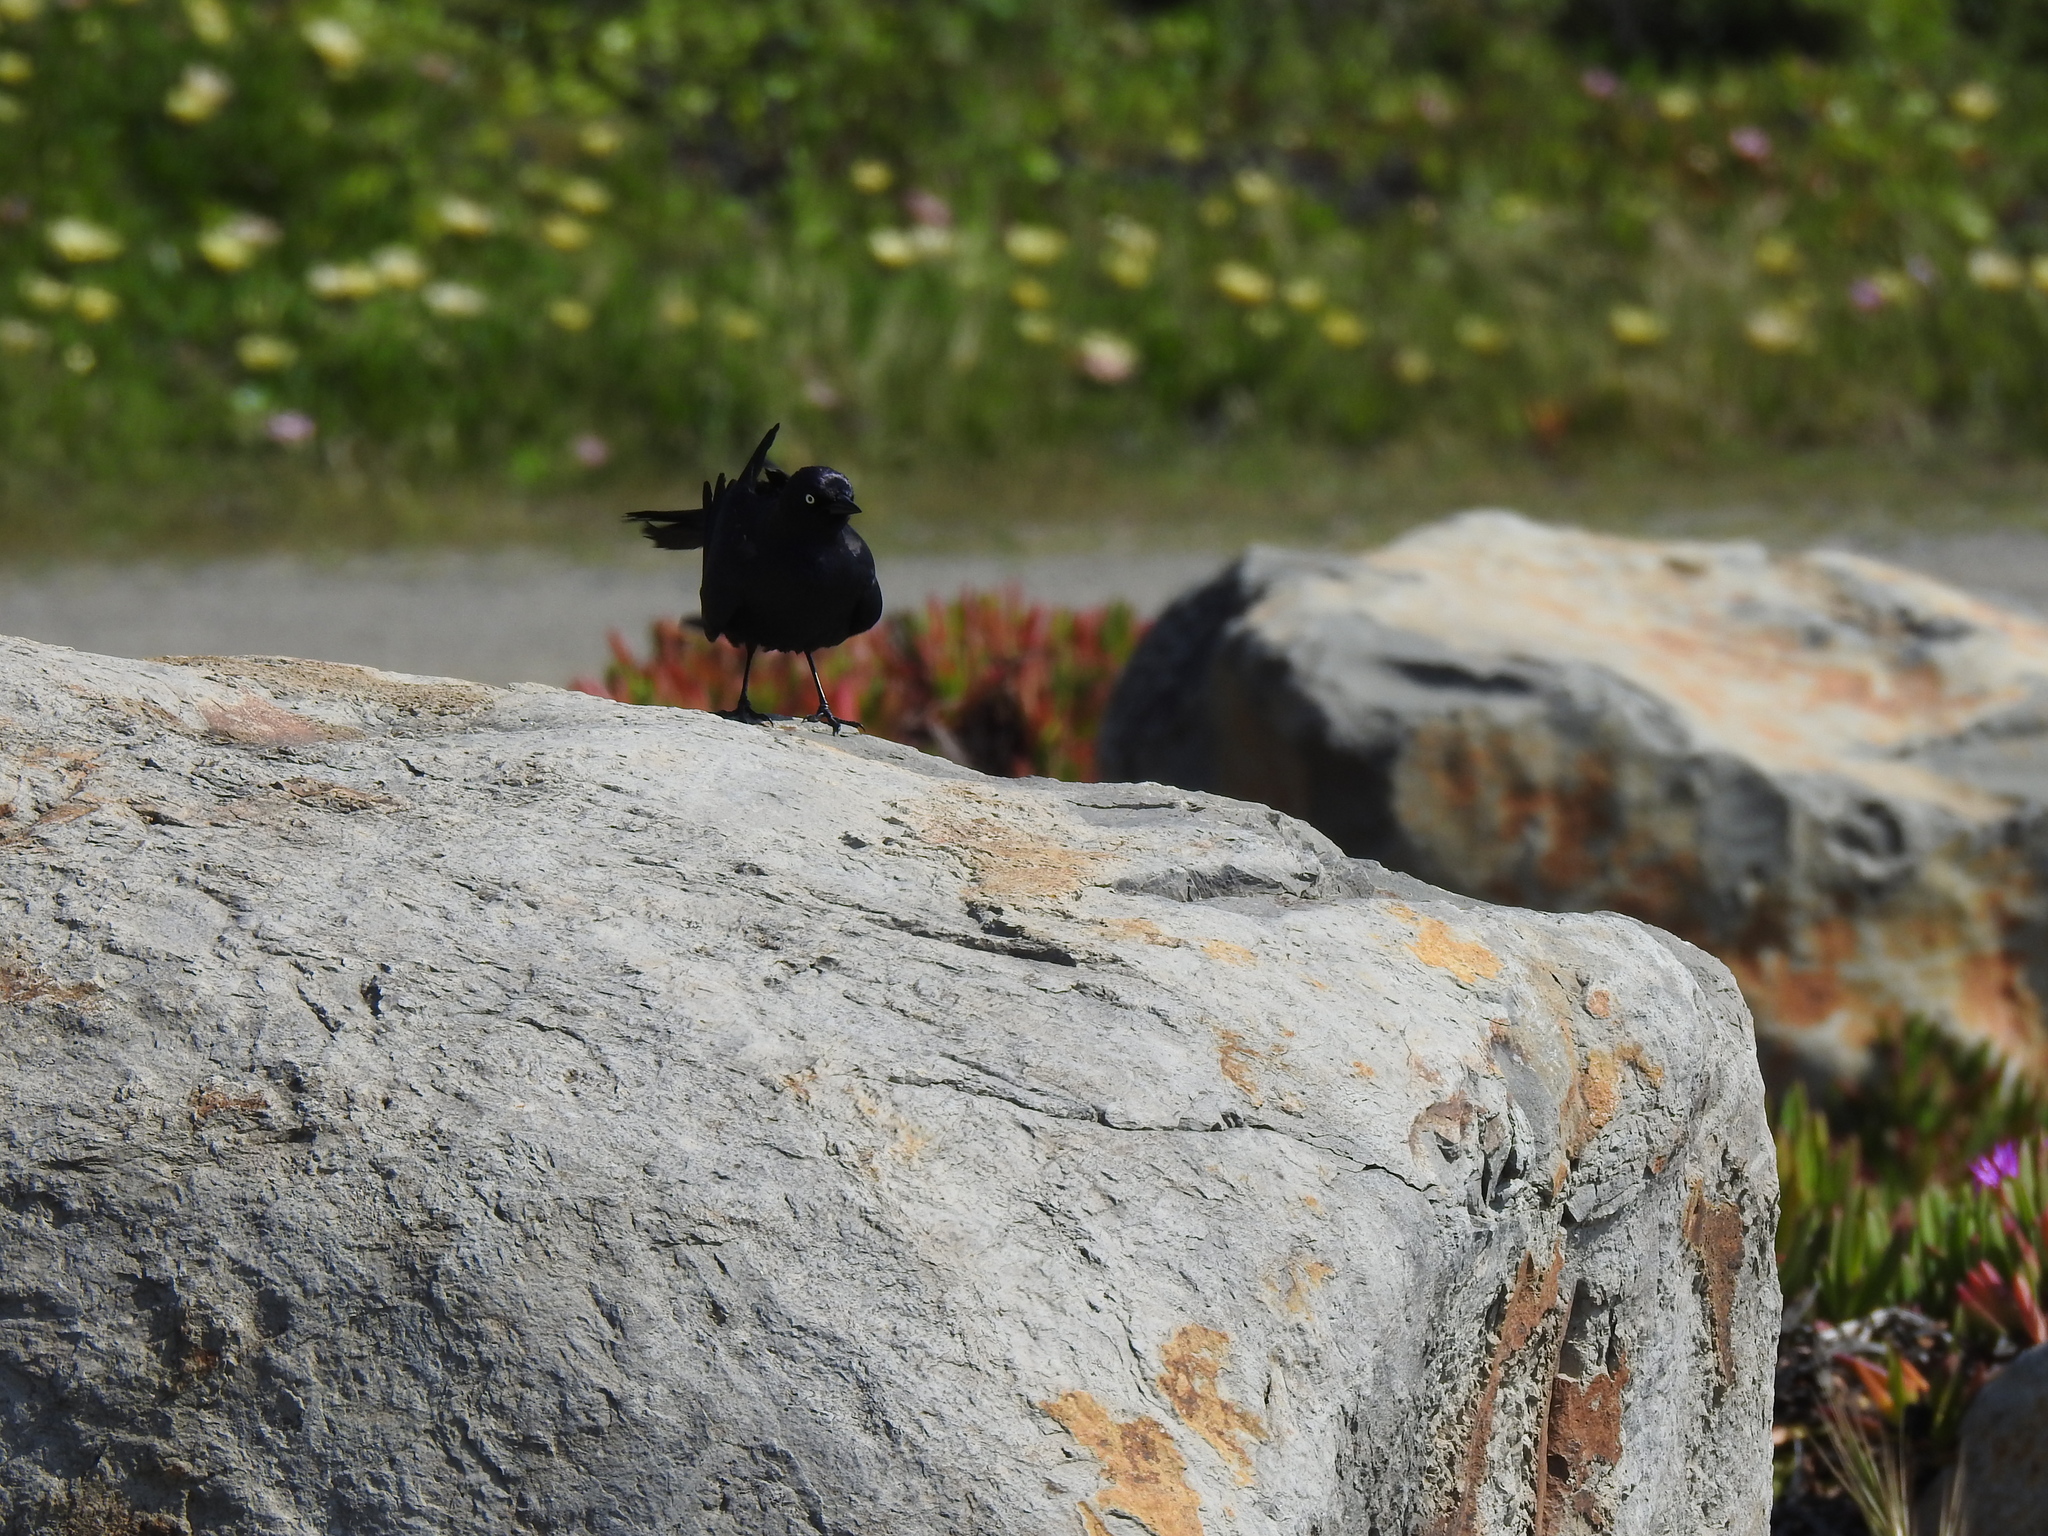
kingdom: Animalia
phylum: Chordata
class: Aves
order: Passeriformes
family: Icteridae
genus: Euphagus
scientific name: Euphagus cyanocephalus
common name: Brewer's blackbird
